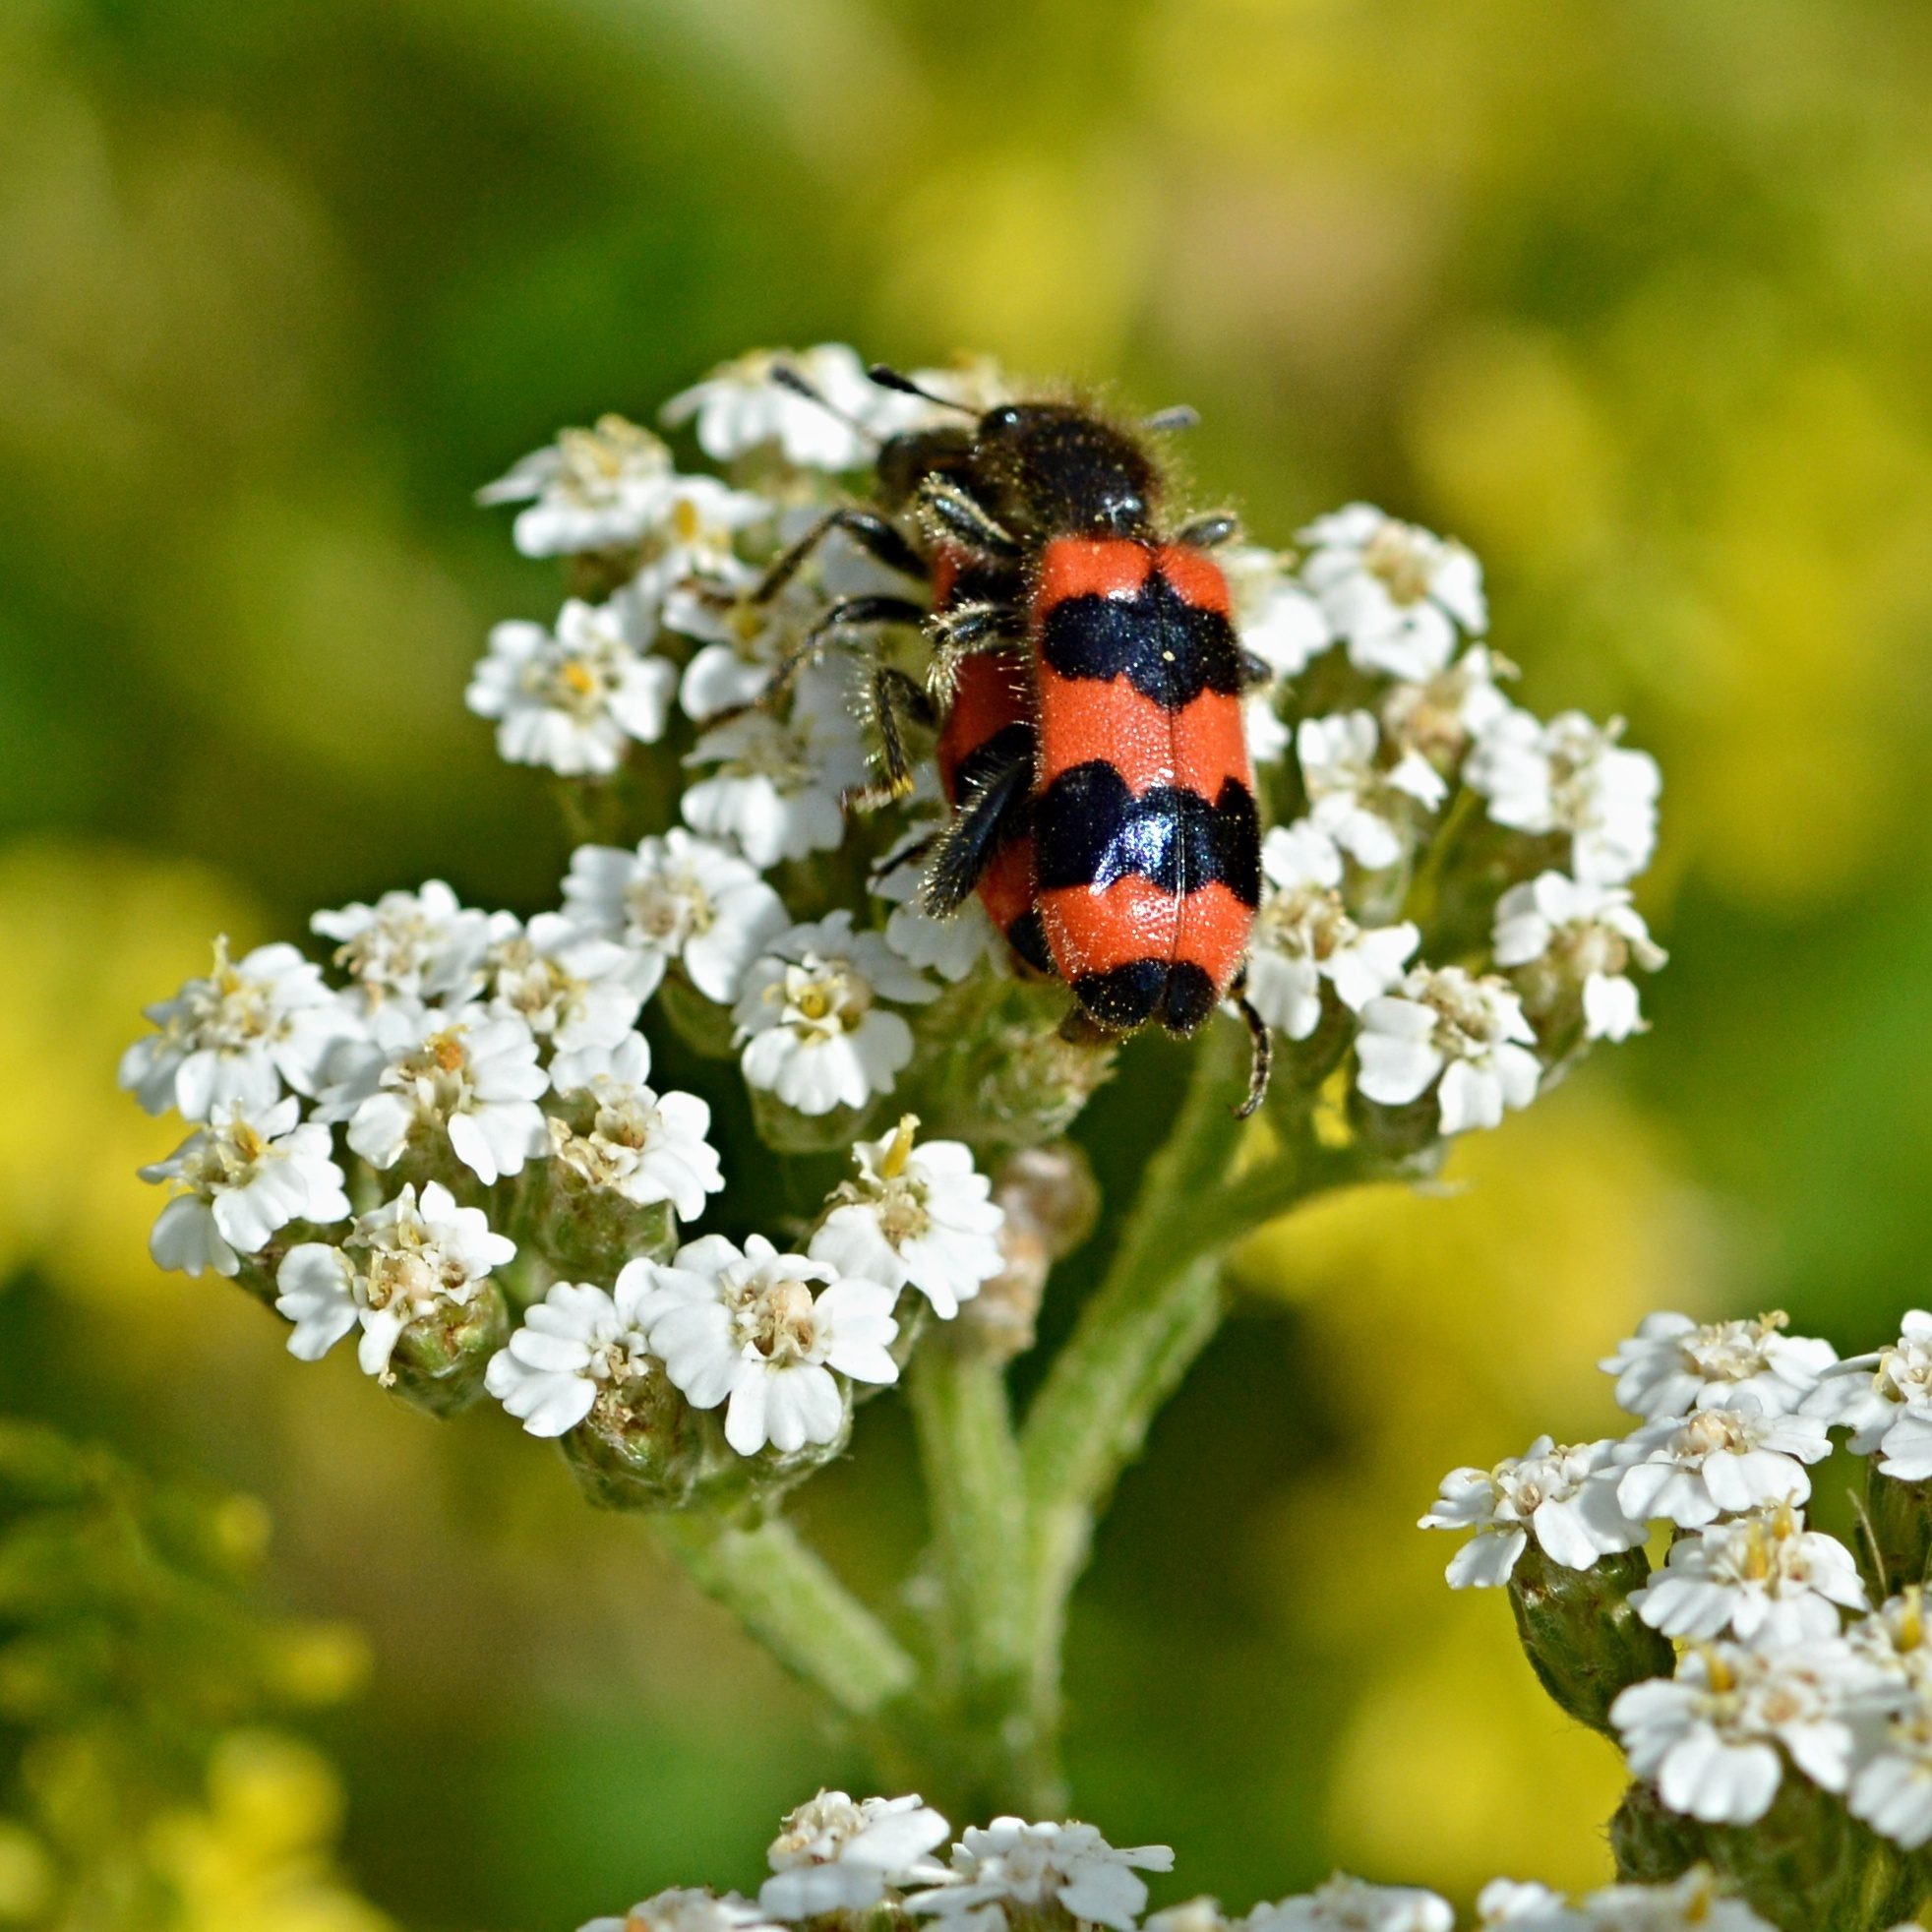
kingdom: Animalia
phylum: Arthropoda
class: Insecta
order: Coleoptera
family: Cleridae
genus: Trichodes
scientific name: Trichodes apiarius
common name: Bee-eating beetle
